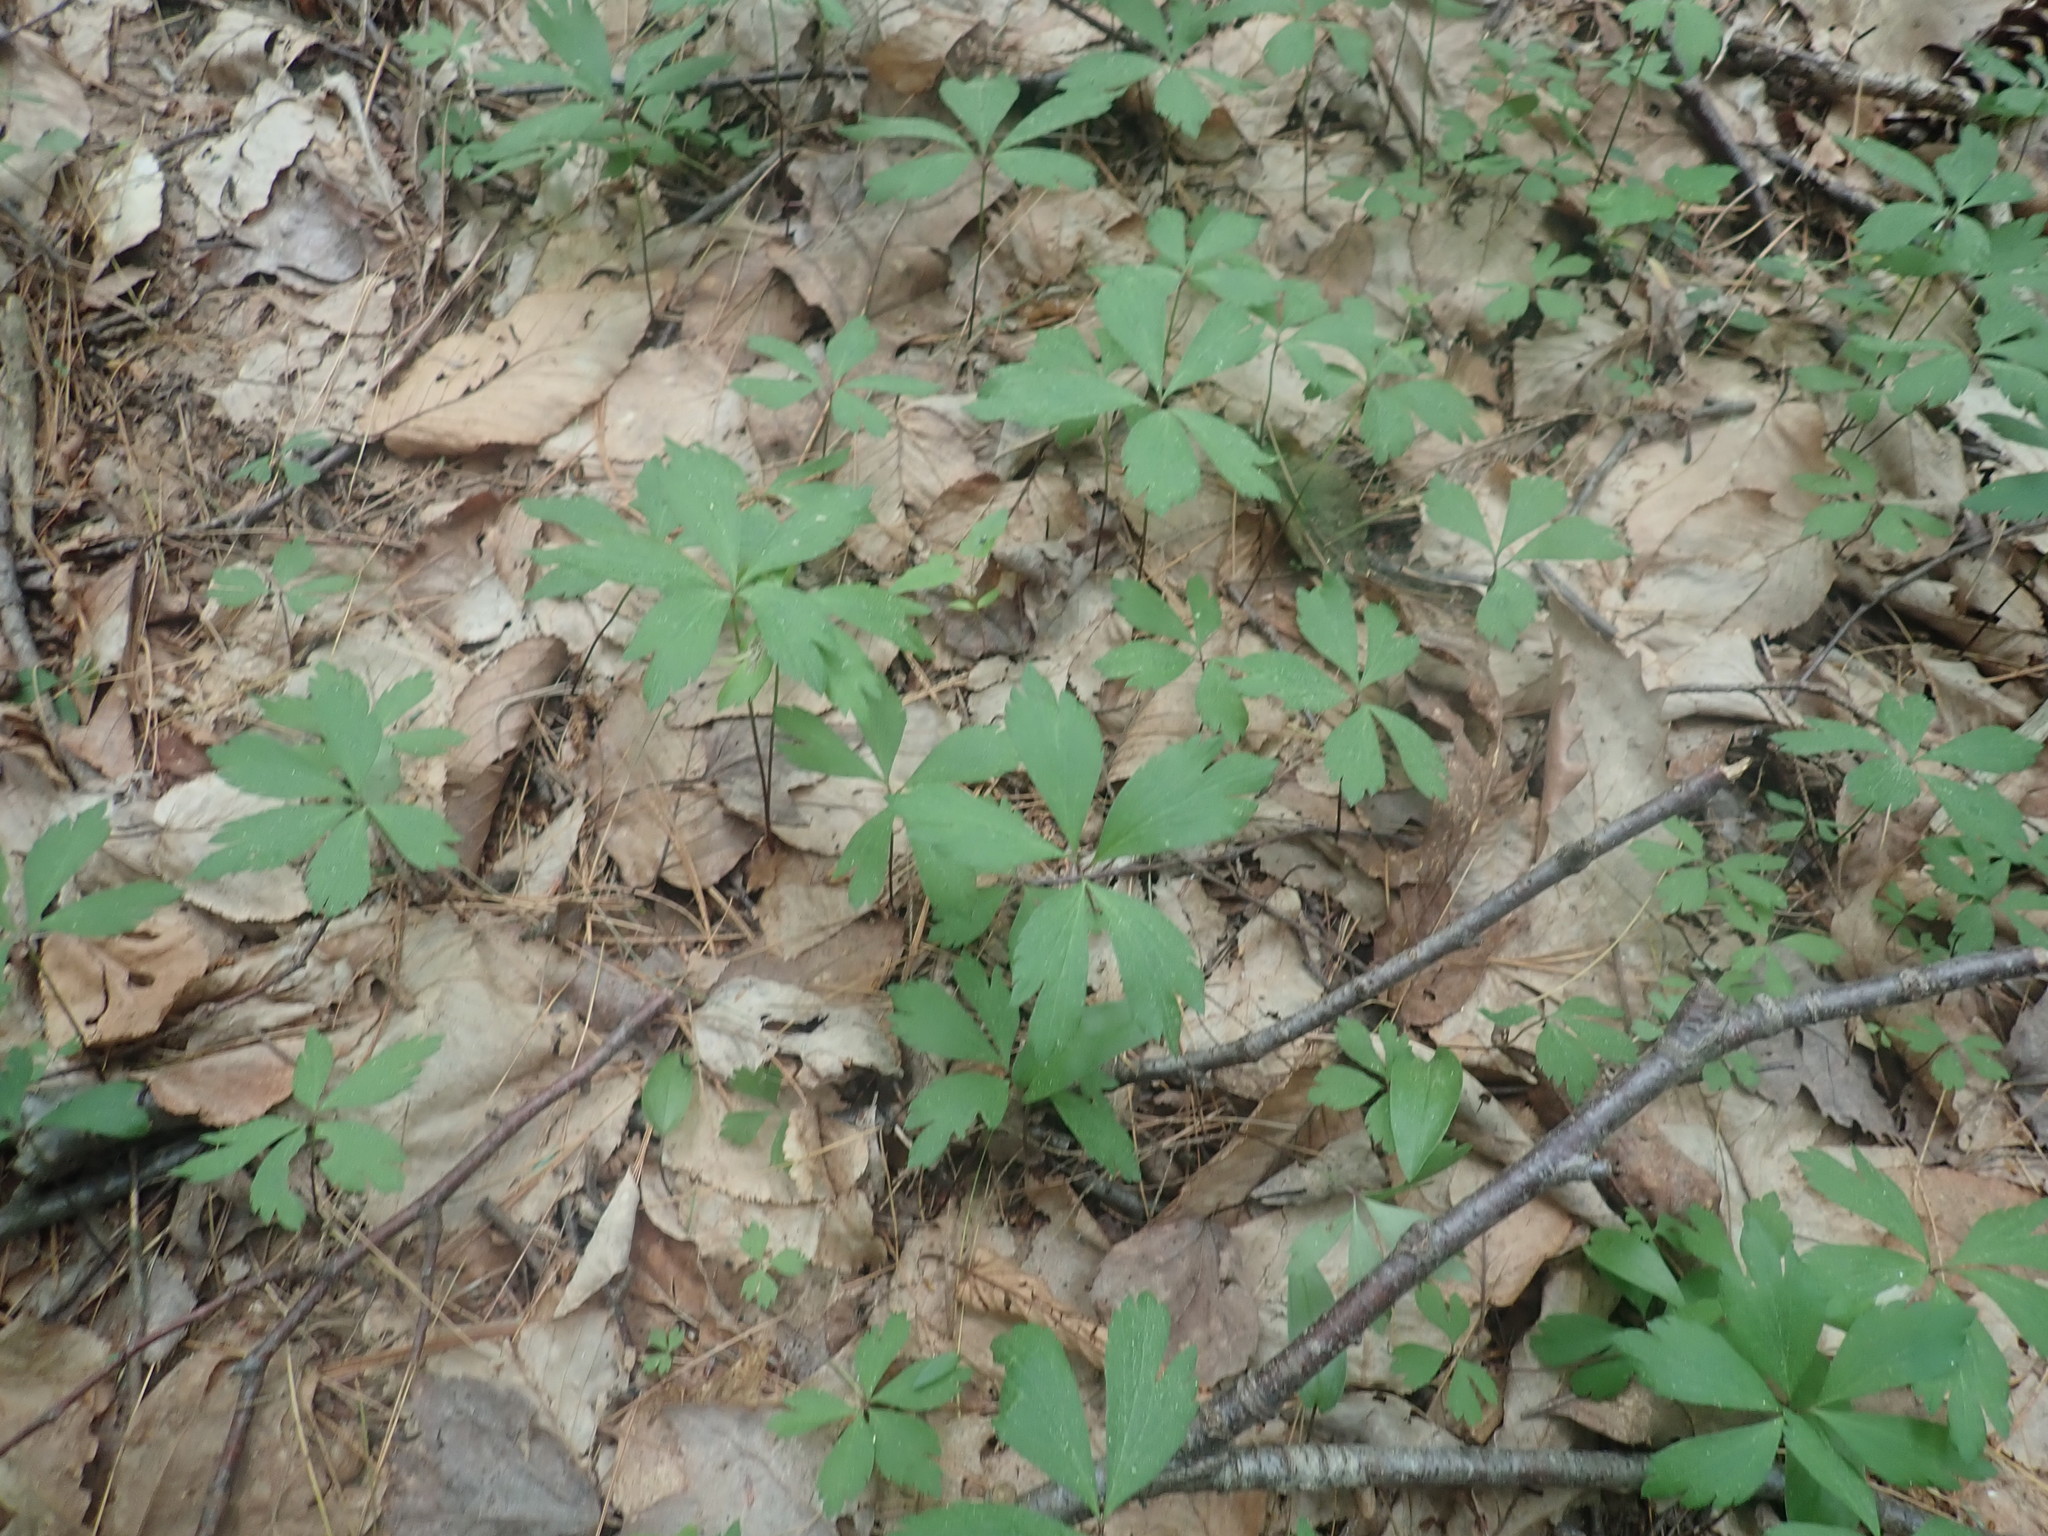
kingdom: Plantae
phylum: Tracheophyta
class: Magnoliopsida
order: Ranunculales
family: Ranunculaceae
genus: Anemone
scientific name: Anemone quinquefolia
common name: Wood anemone
